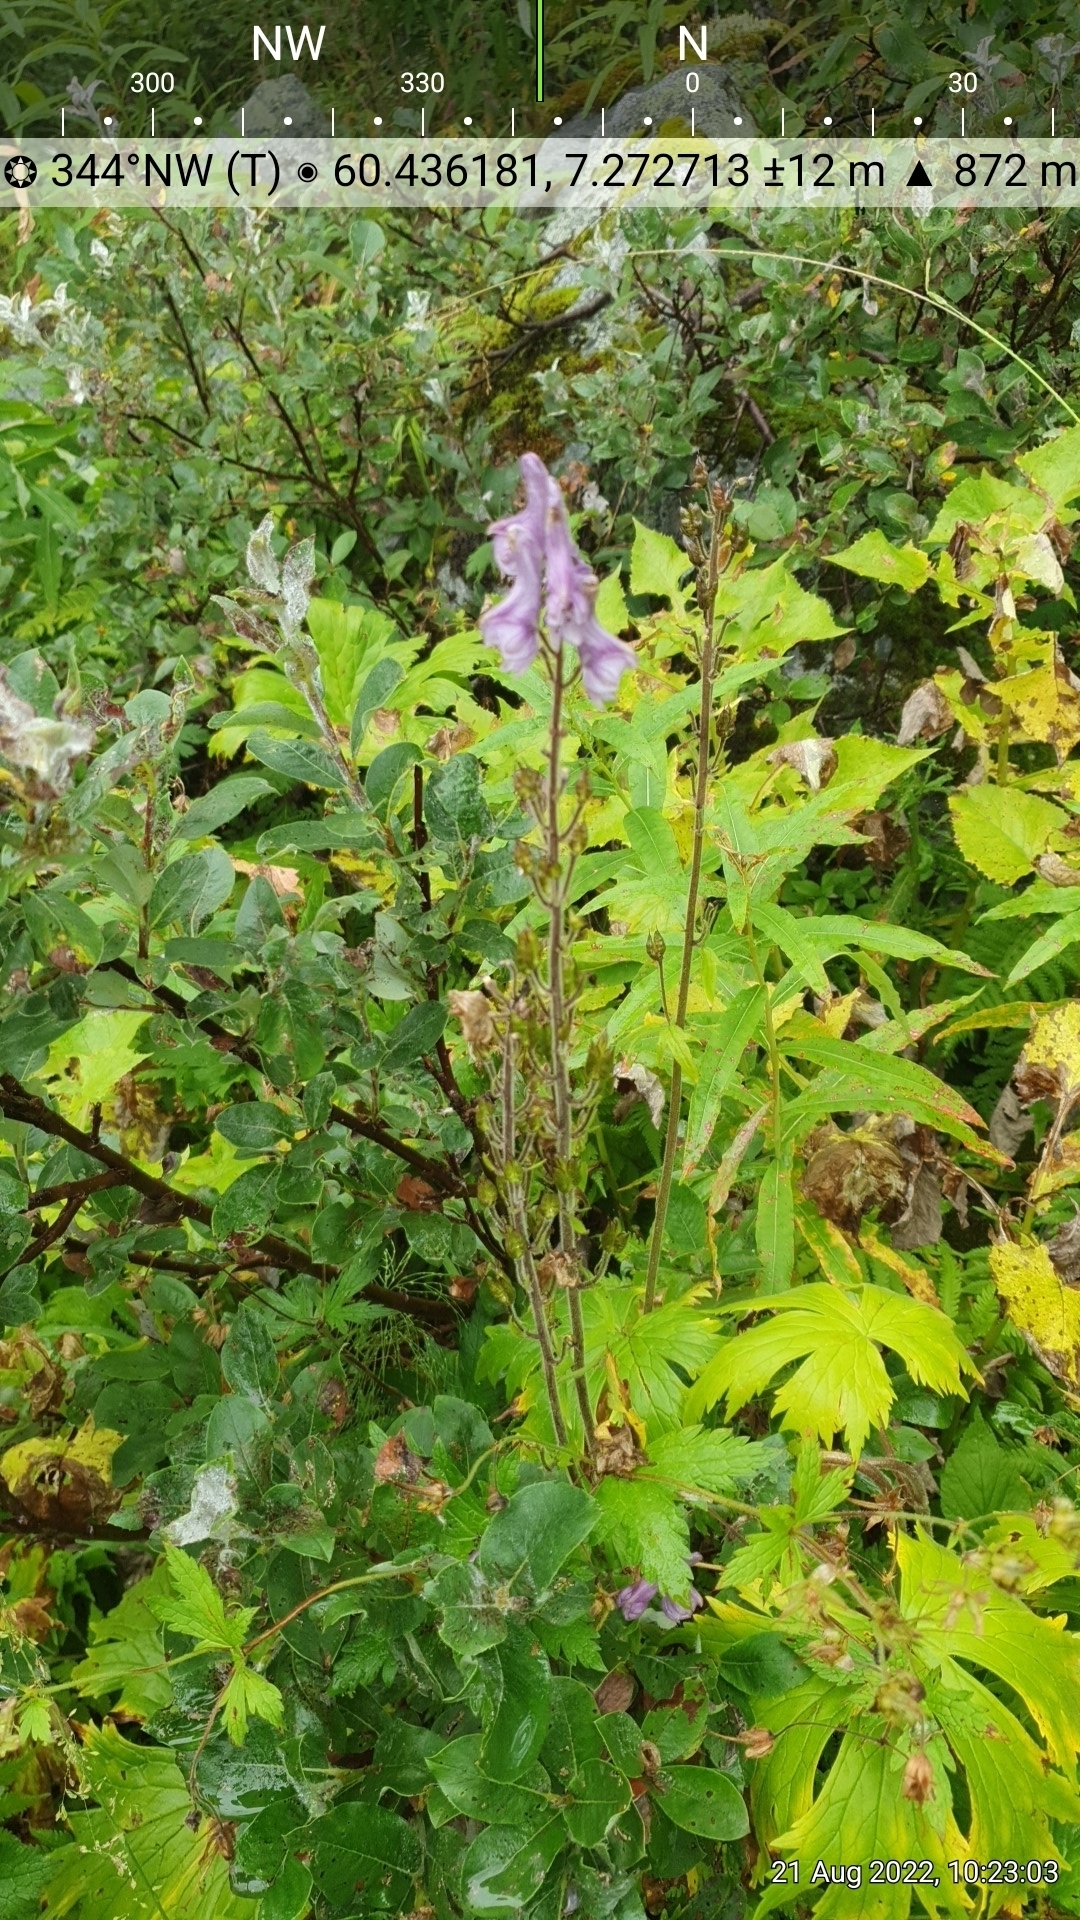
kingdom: Plantae
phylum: Tracheophyta
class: Magnoliopsida
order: Ranunculales
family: Ranunculaceae
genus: Aconitum
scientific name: Aconitum septentrionale
